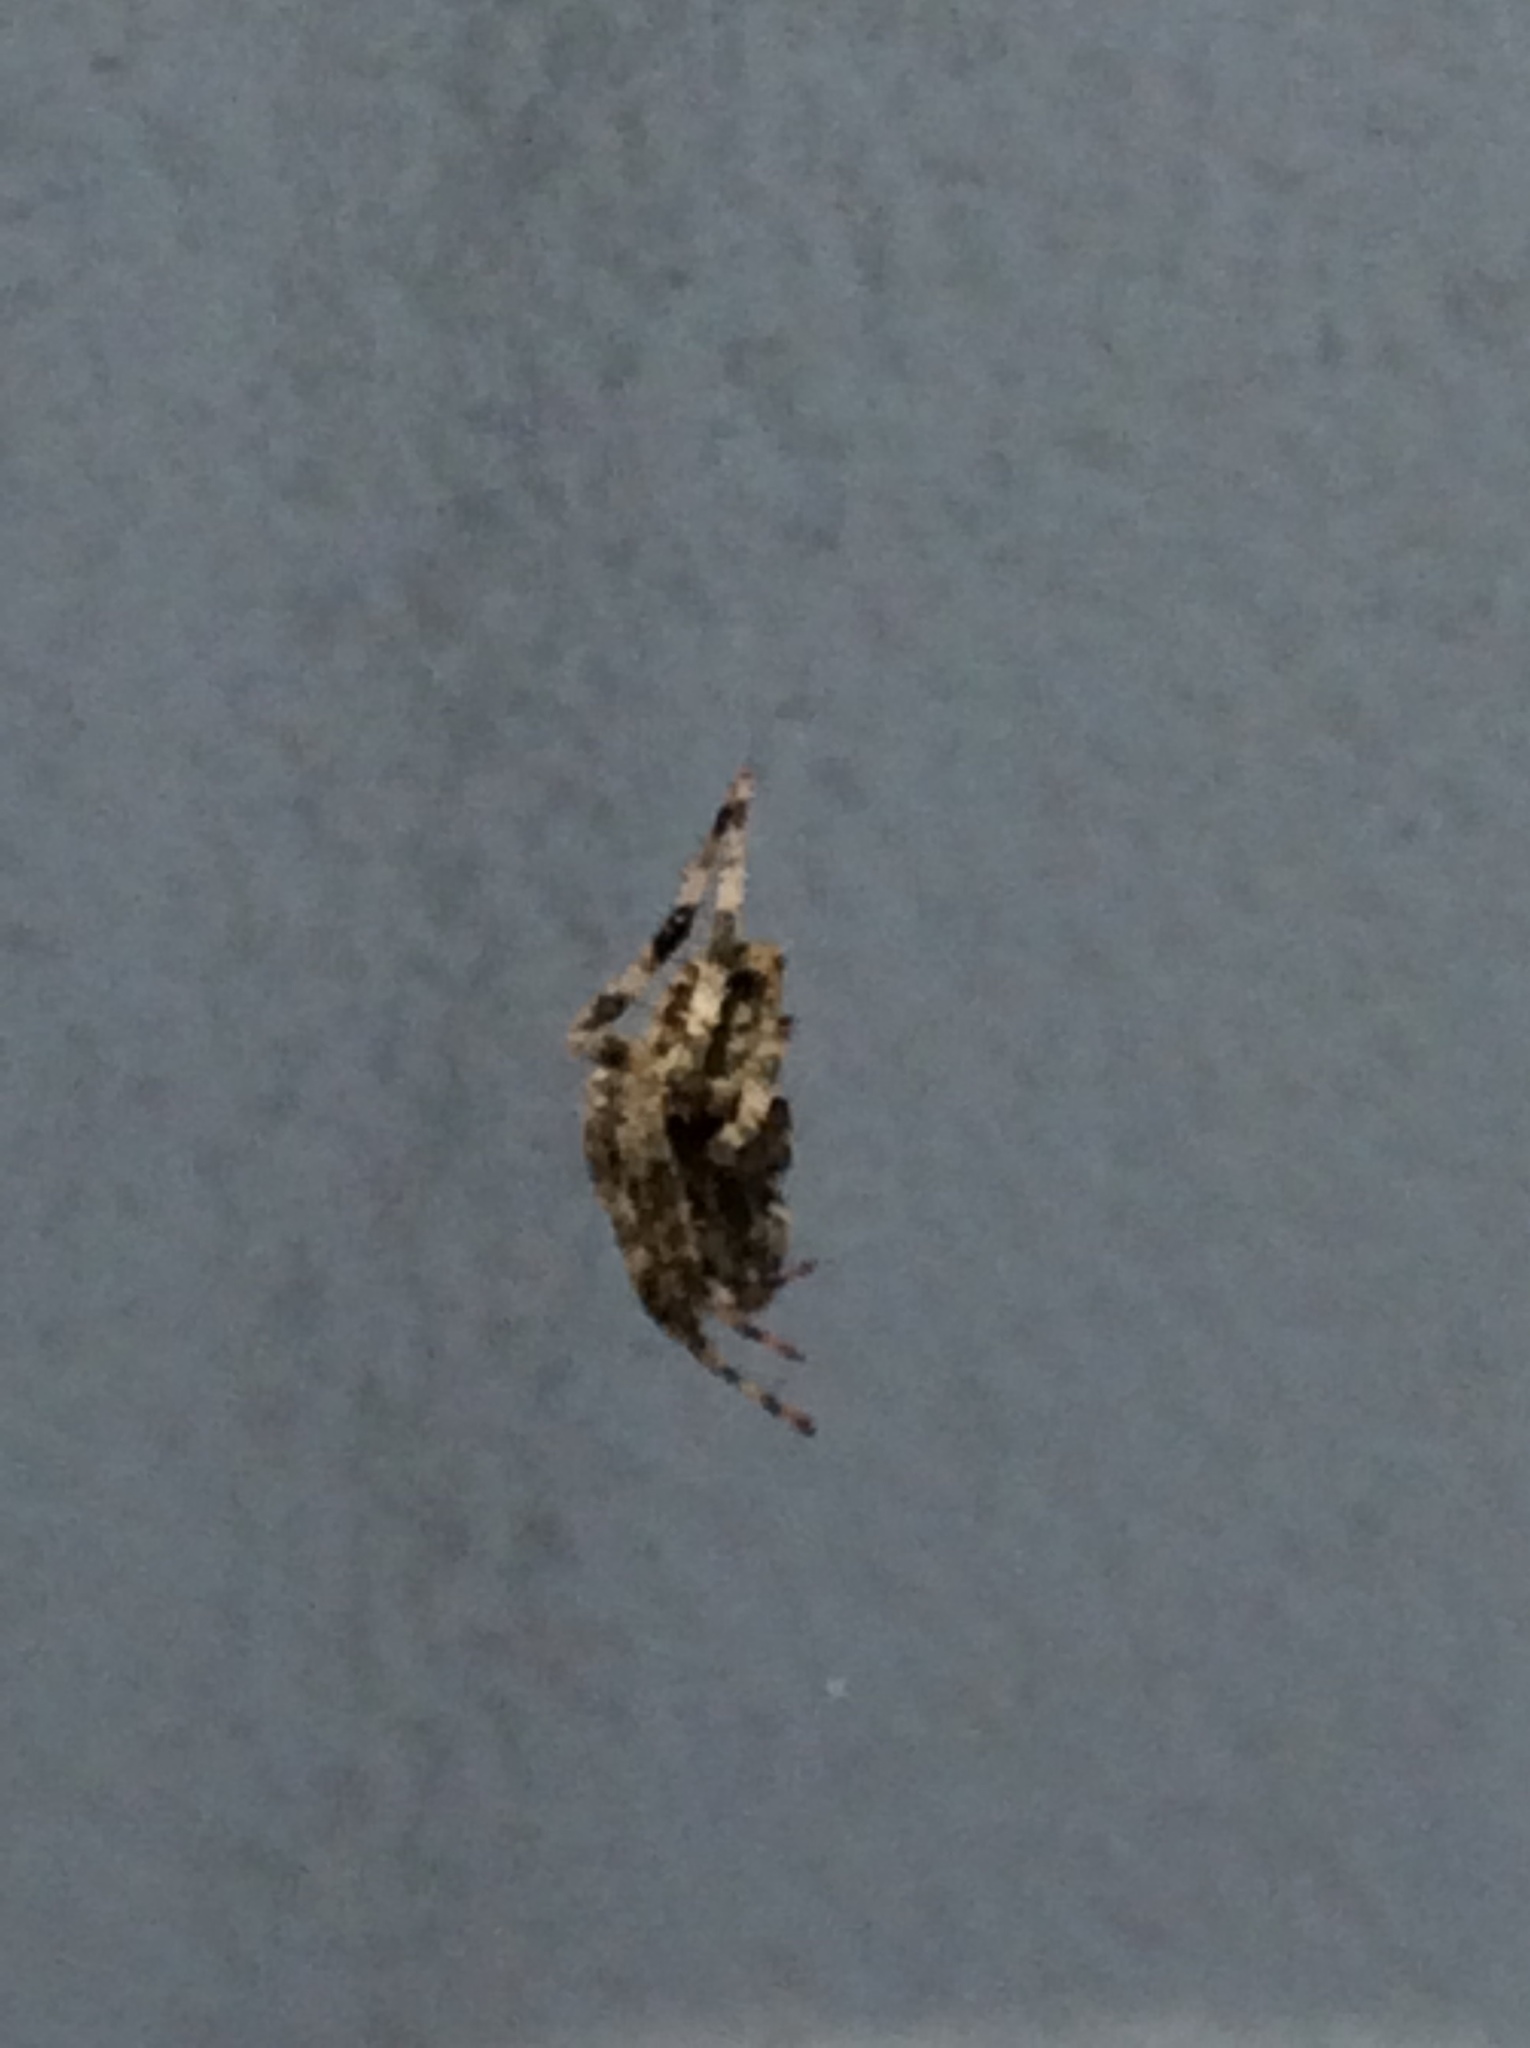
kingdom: Animalia
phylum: Arthropoda
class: Arachnida
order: Araneae
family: Araneidae
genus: Neoscona
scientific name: Neoscona crucifera
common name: Spotted orbweaver
